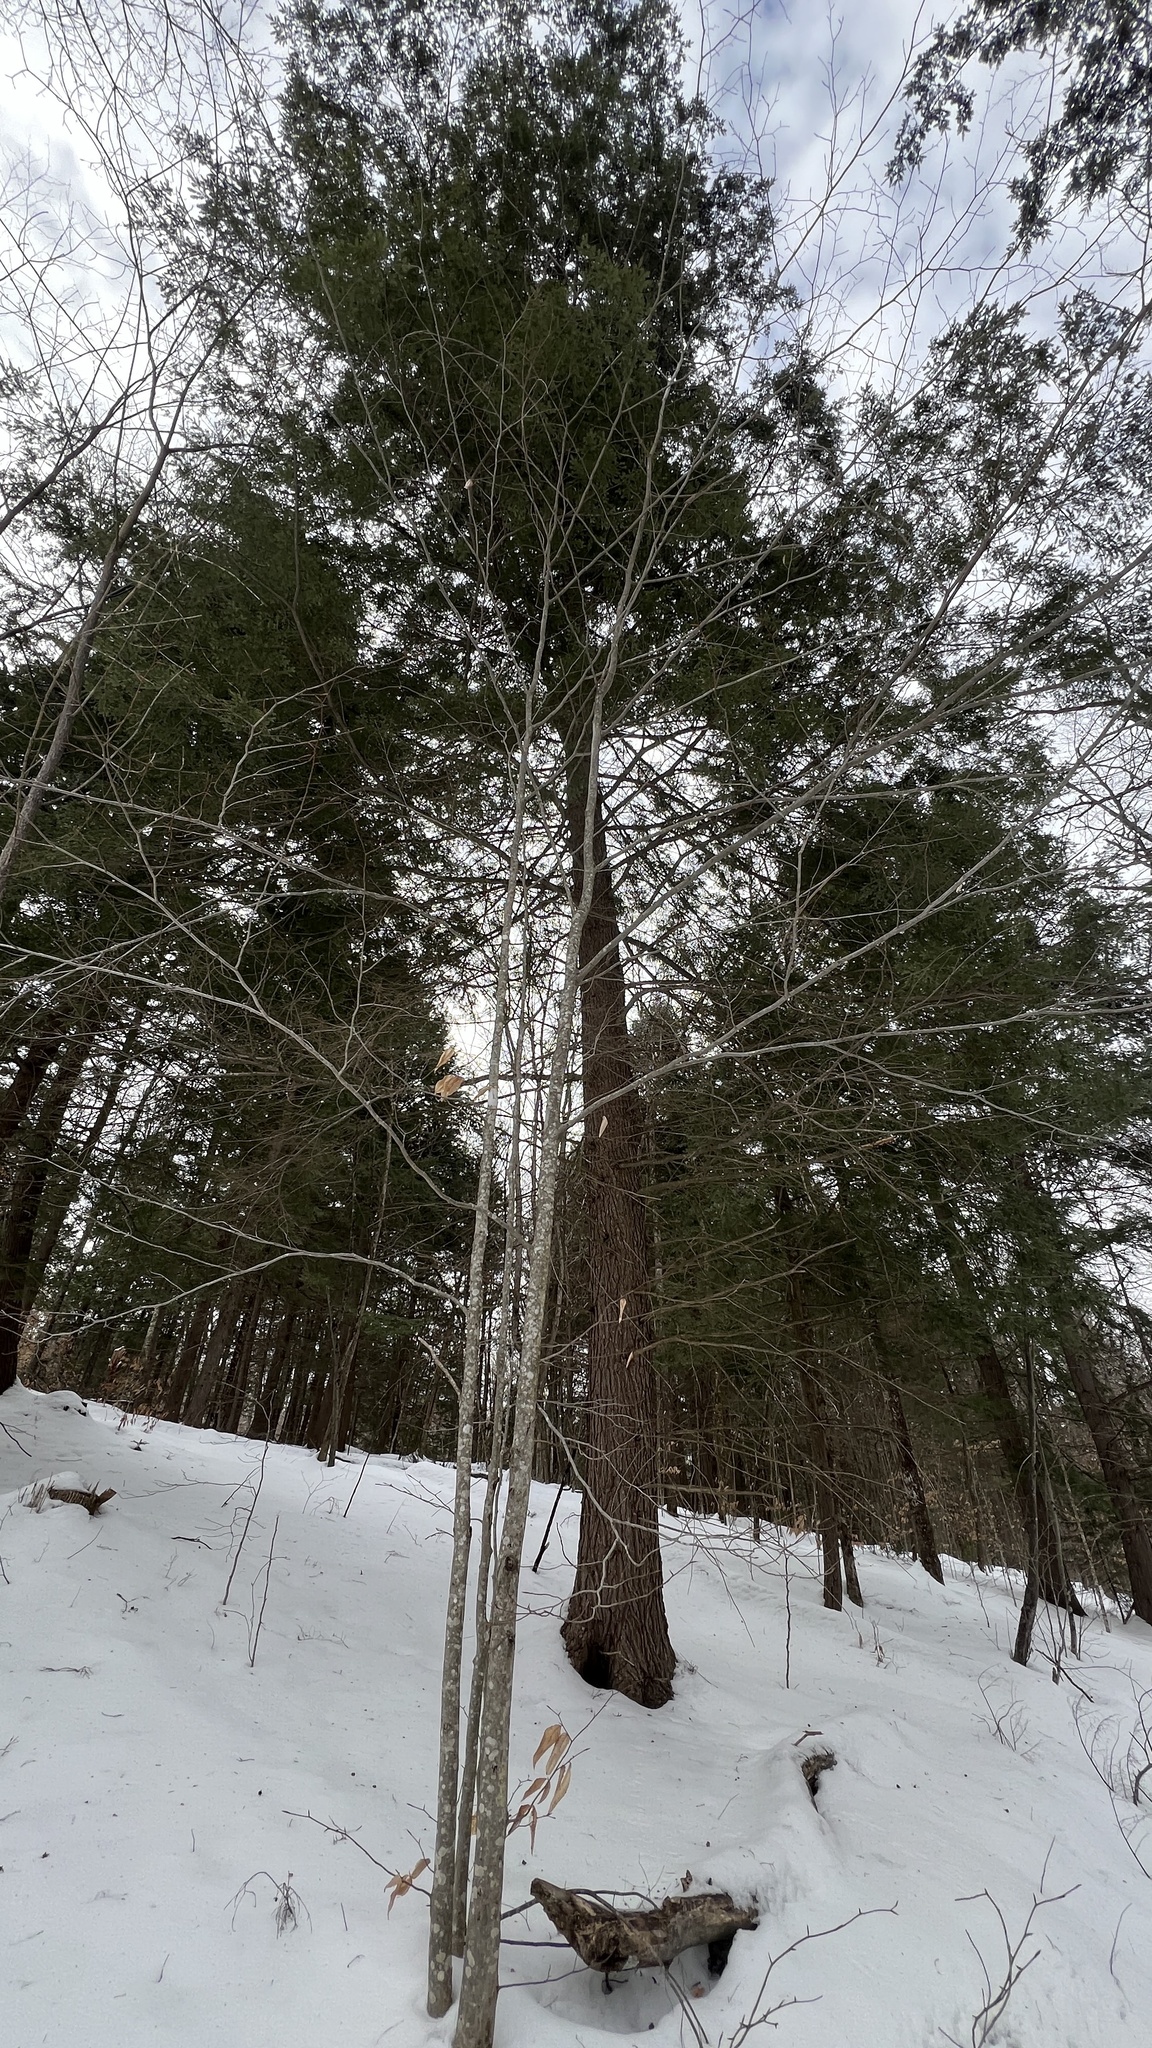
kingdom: Plantae
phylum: Tracheophyta
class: Pinopsida
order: Pinales
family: Pinaceae
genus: Tsuga
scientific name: Tsuga canadensis
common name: Eastern hemlock
